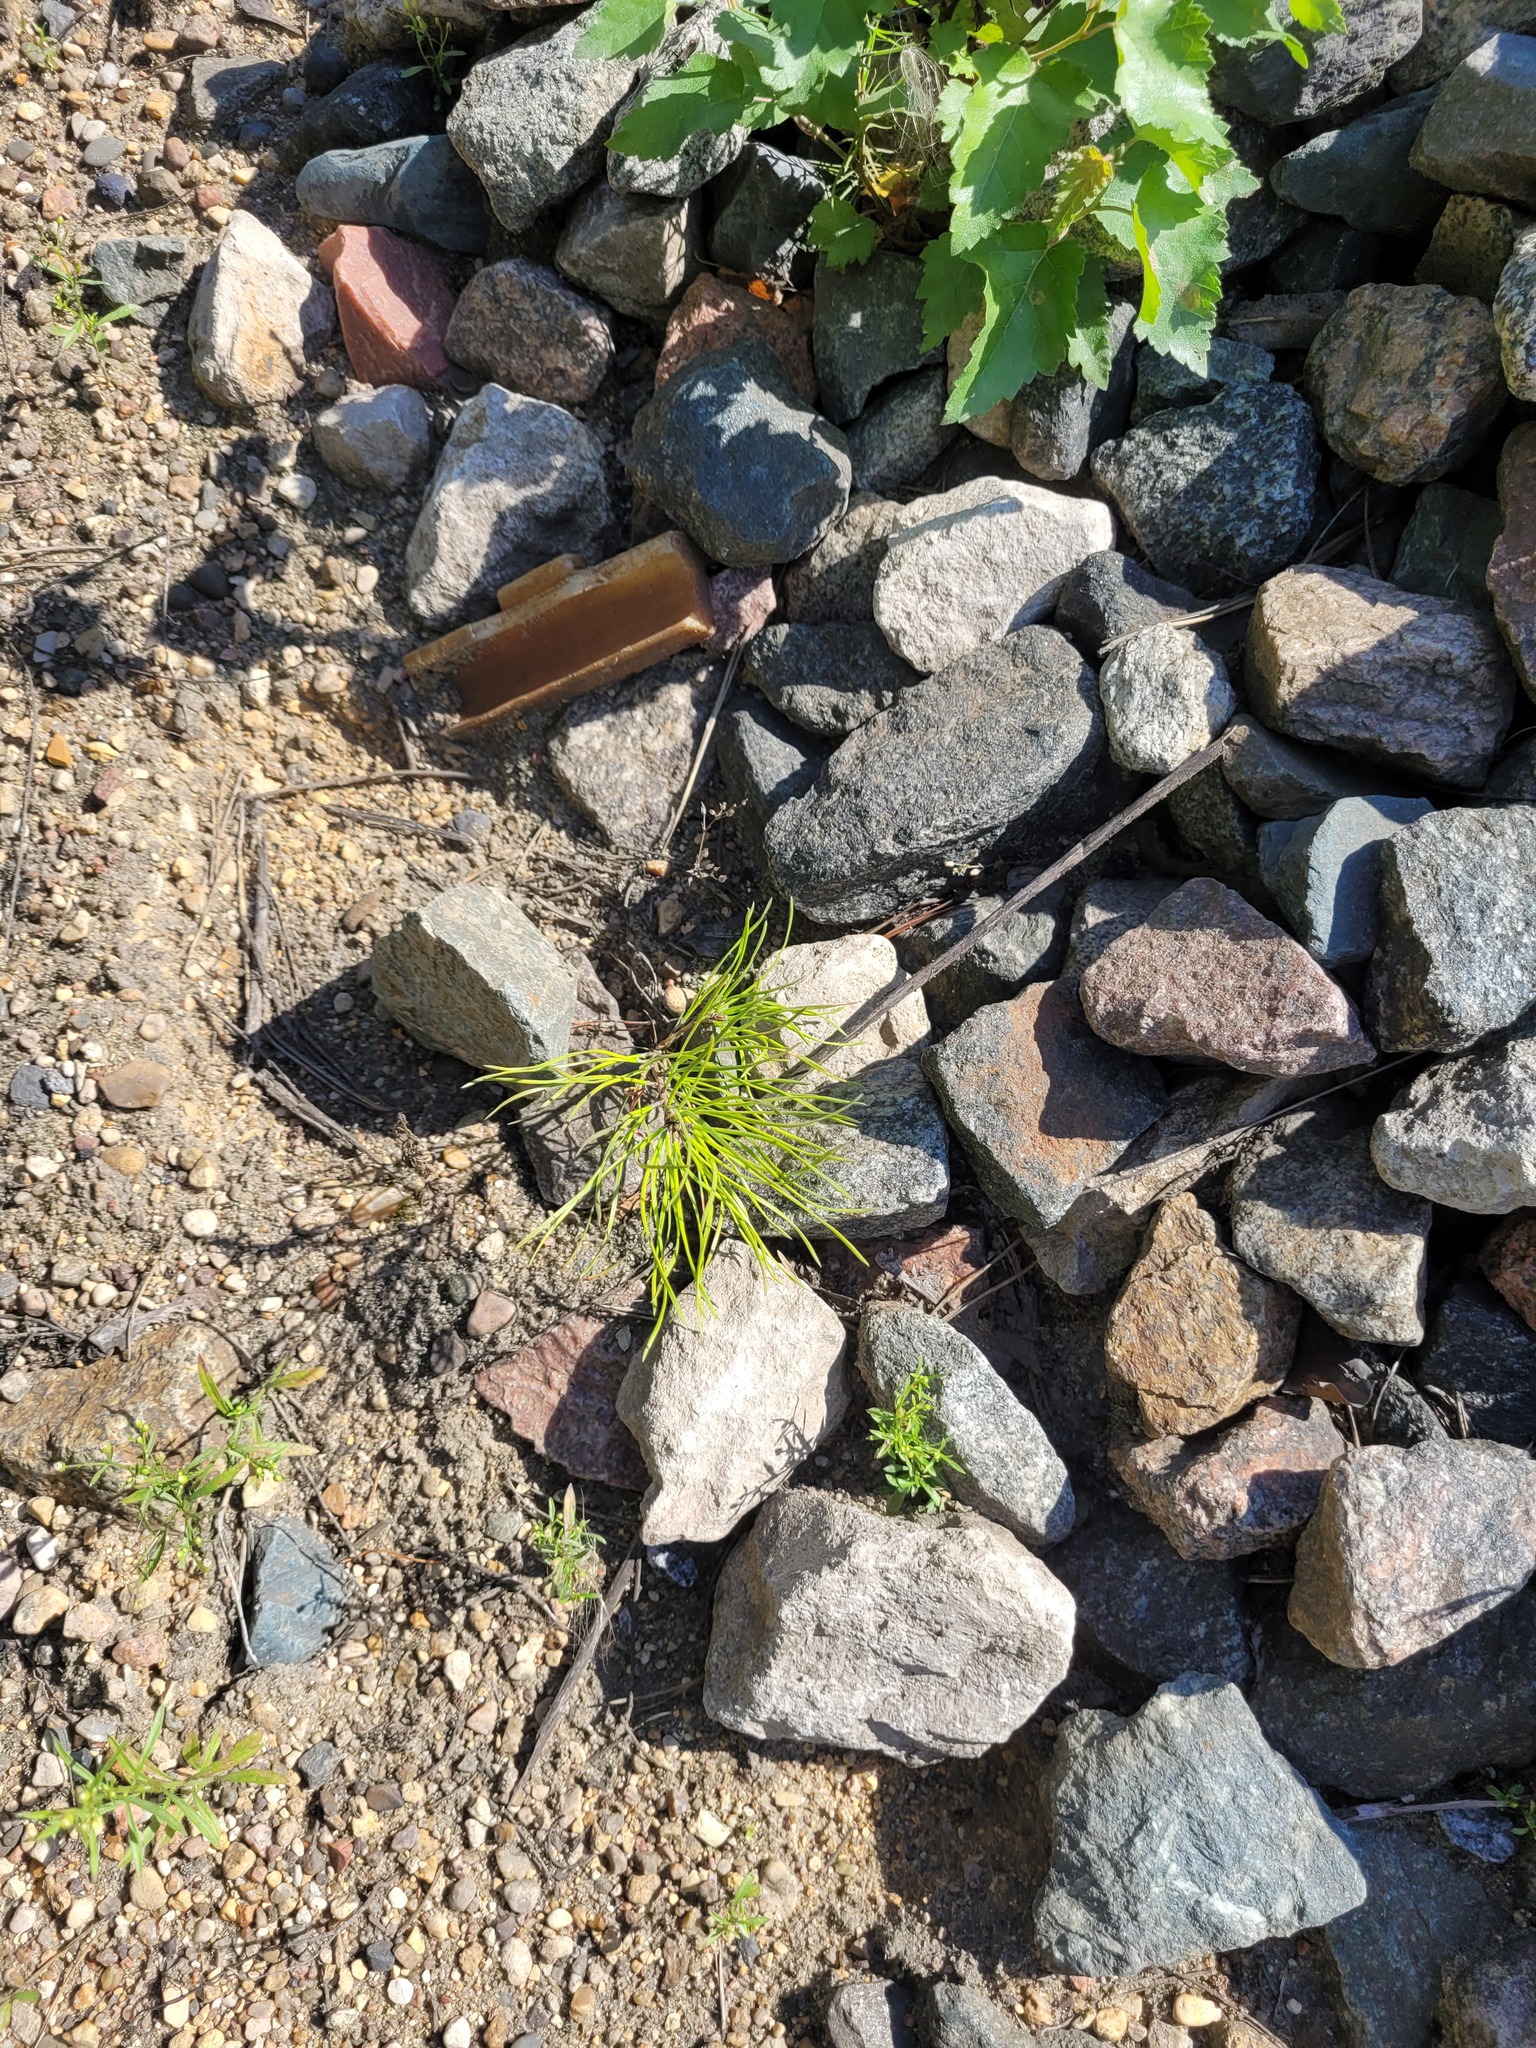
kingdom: Plantae
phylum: Tracheophyta
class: Pinopsida
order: Pinales
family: Pinaceae
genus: Pinus
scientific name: Pinus sylvestris
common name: Scots pine
